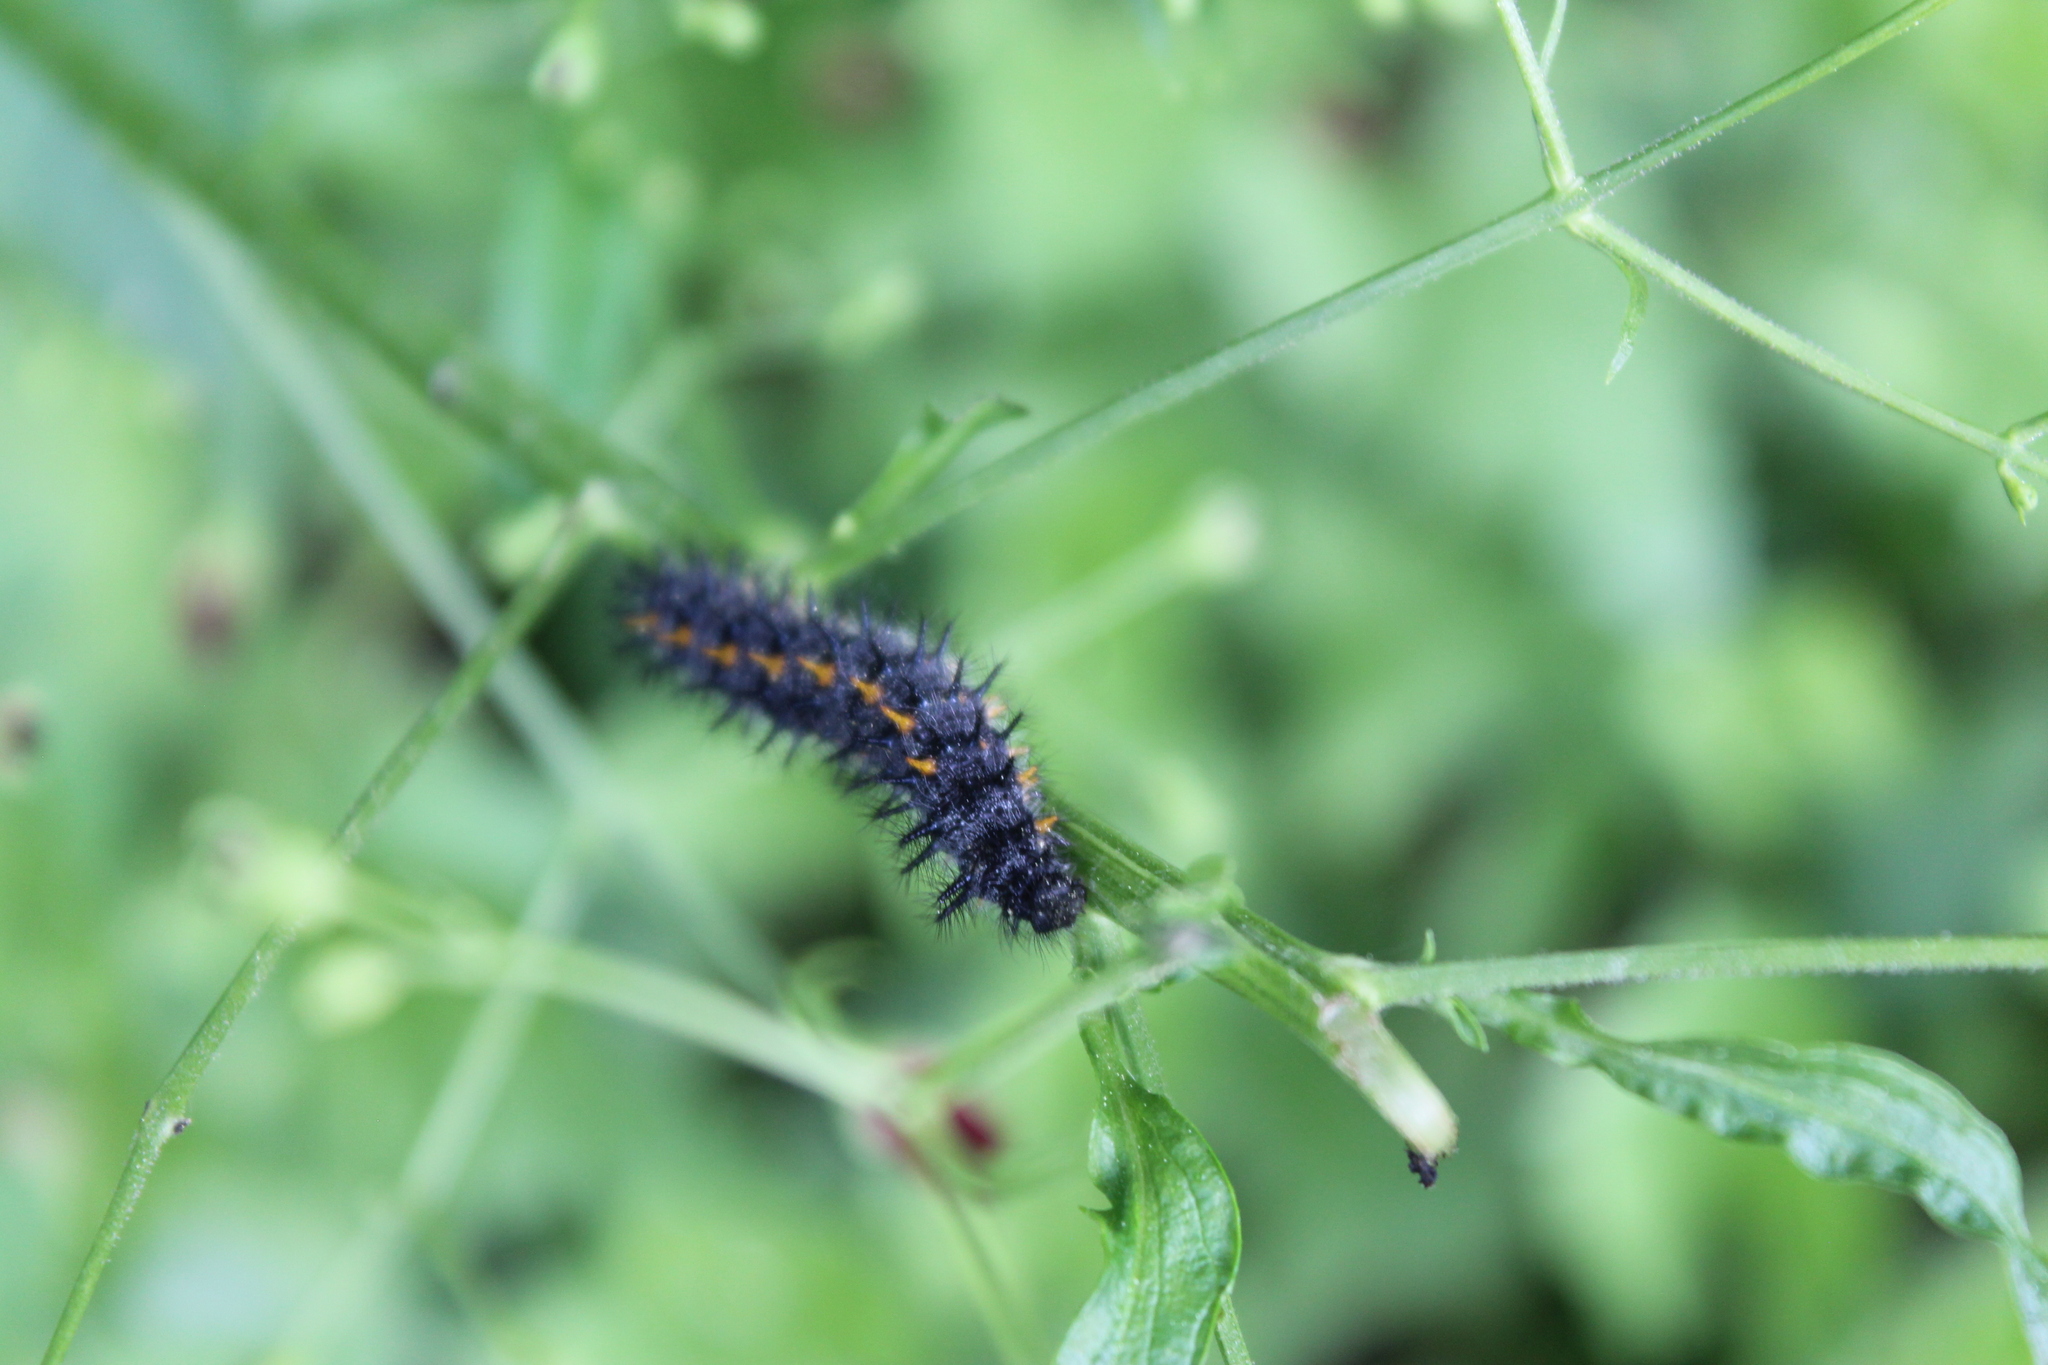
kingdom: Animalia
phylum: Arthropoda
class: Insecta
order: Lepidoptera
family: Nymphalidae
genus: Occidryas
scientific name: Occidryas chalcedona
